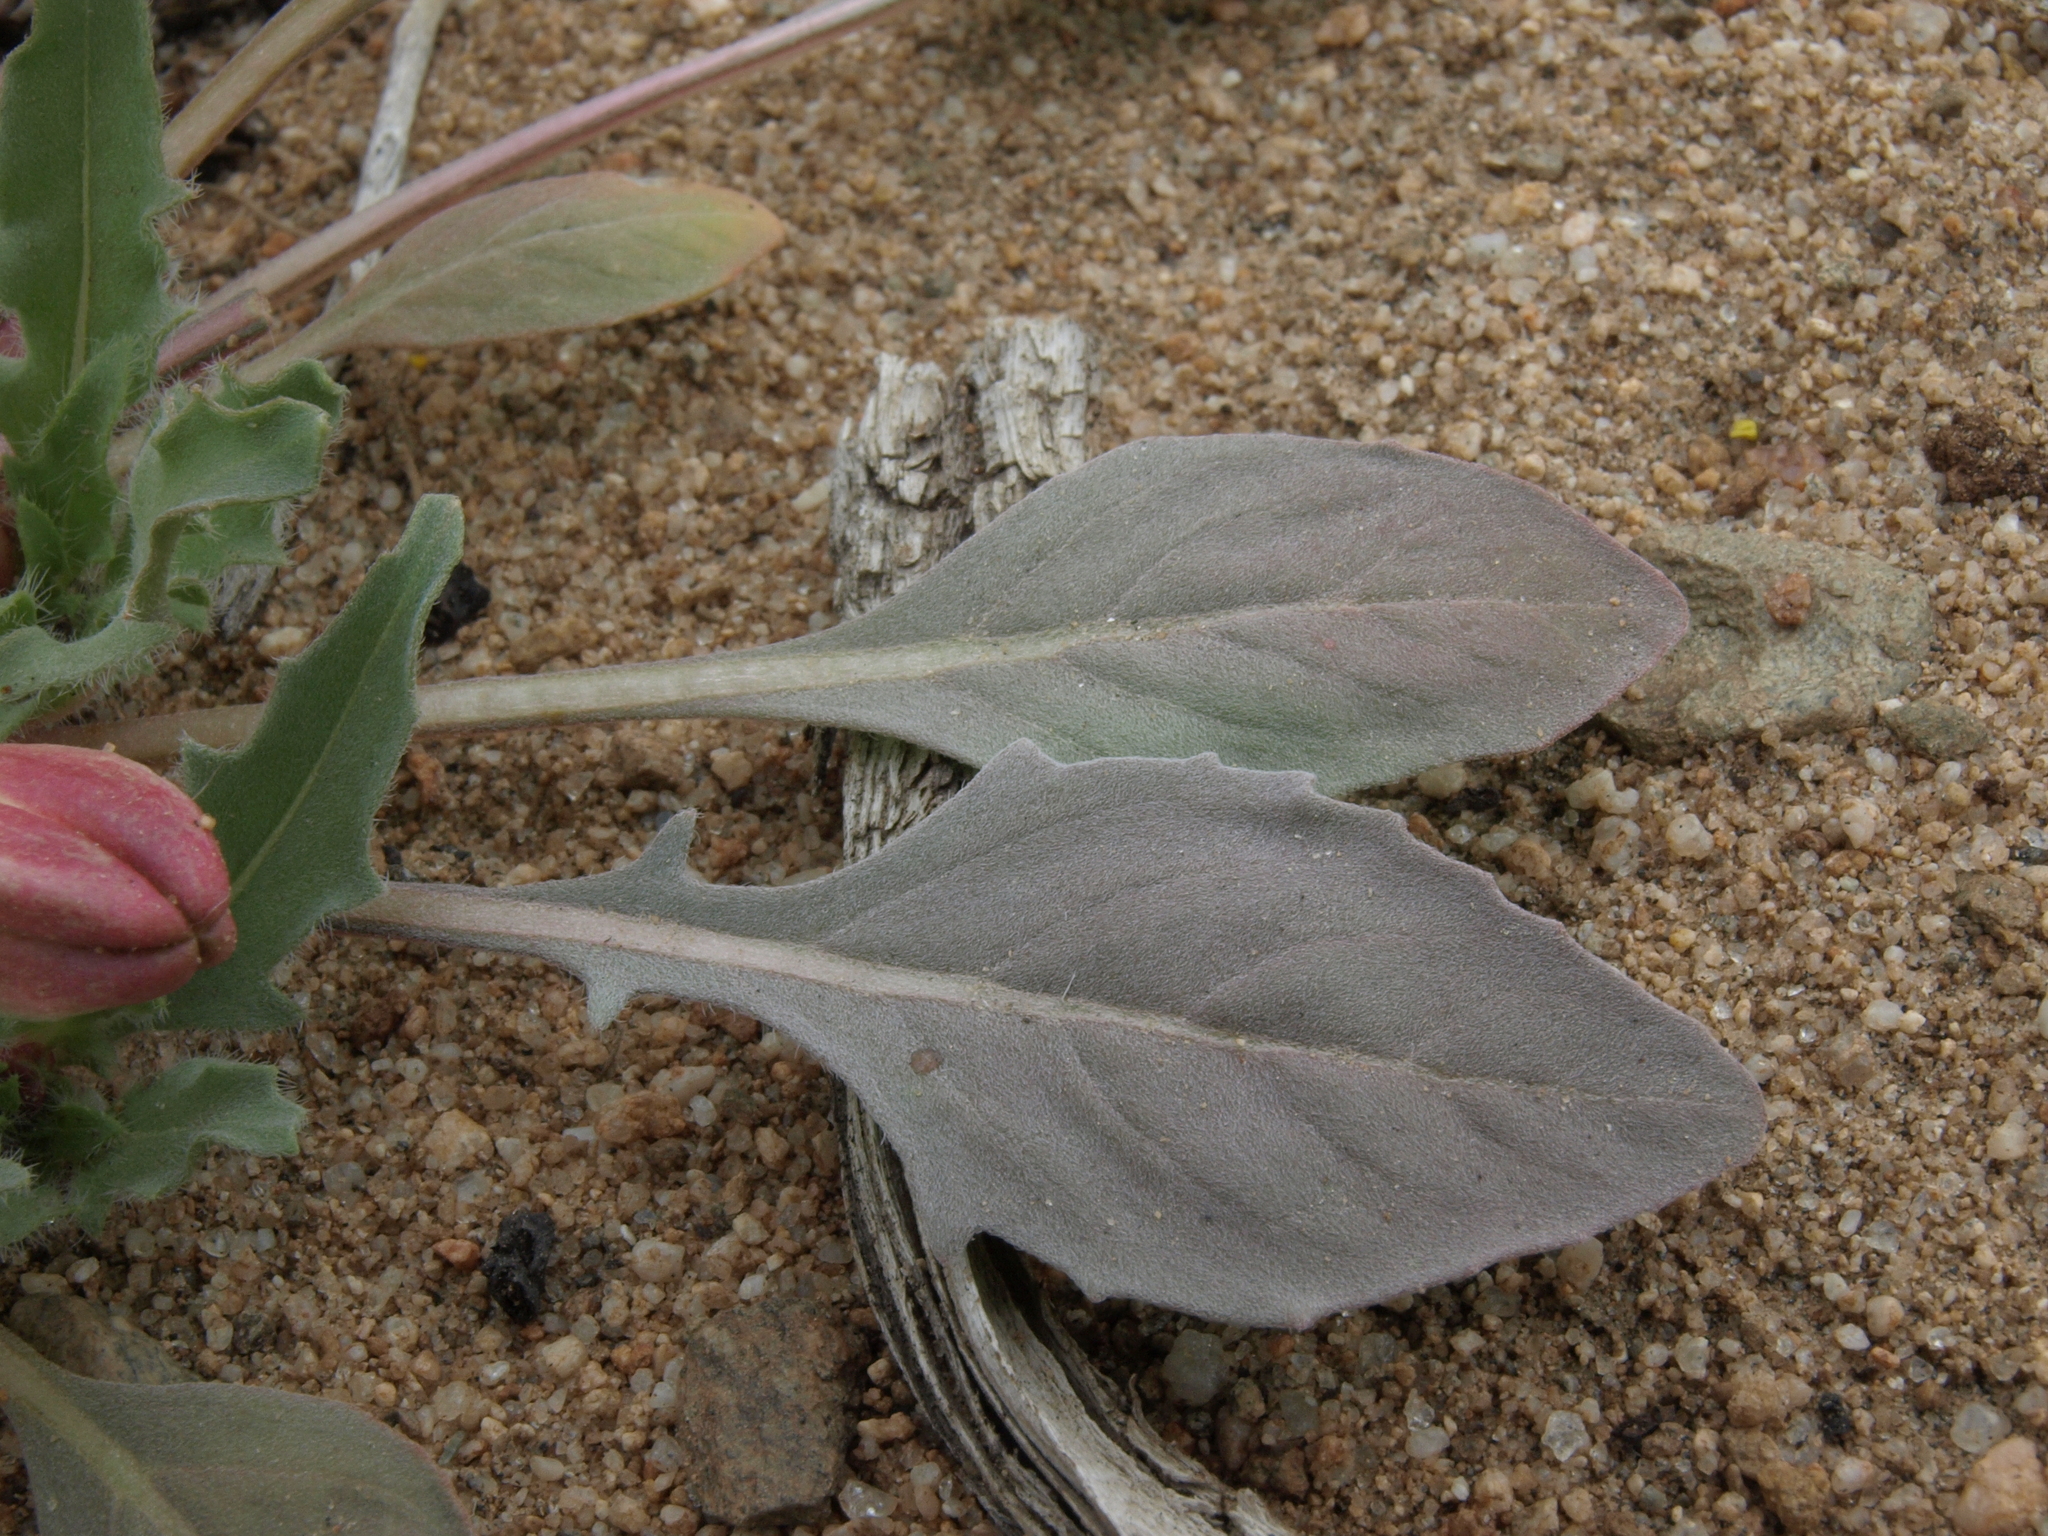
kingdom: Plantae
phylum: Tracheophyta
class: Magnoliopsida
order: Myrtales
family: Onagraceae
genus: Oenothera
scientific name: Oenothera deltoides
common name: Basket evening-primrose
